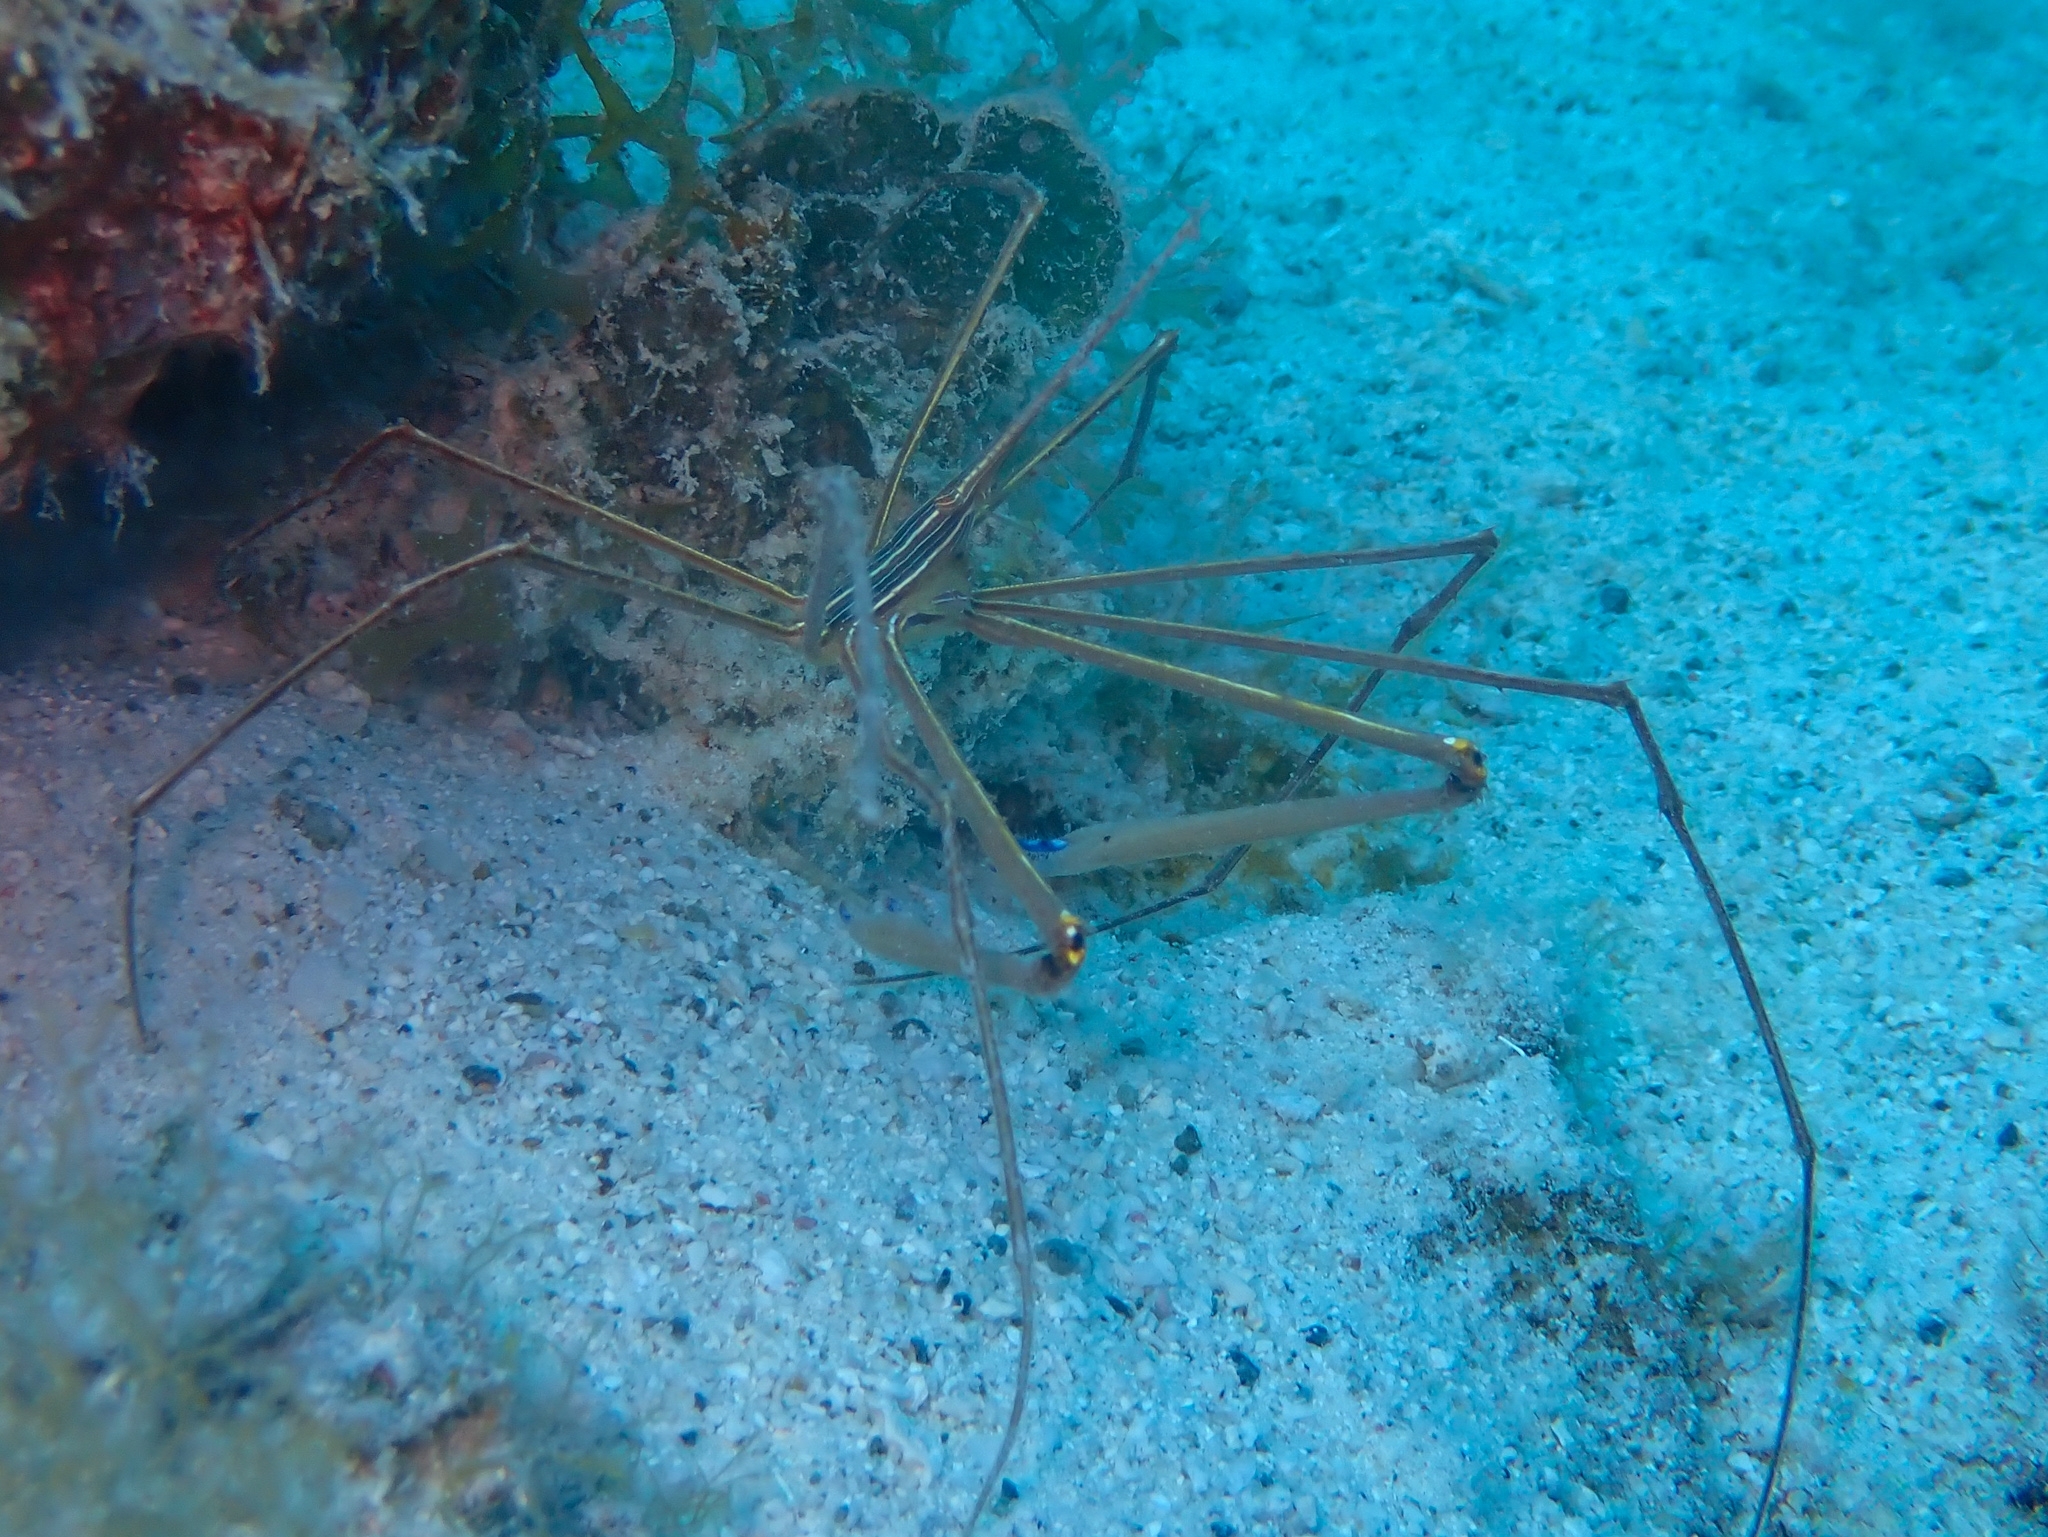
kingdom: Animalia
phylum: Arthropoda
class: Malacostraca
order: Decapoda
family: Inachoididae
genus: Stenorhynchus
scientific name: Stenorhynchus seticornis
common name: Arrow crab
